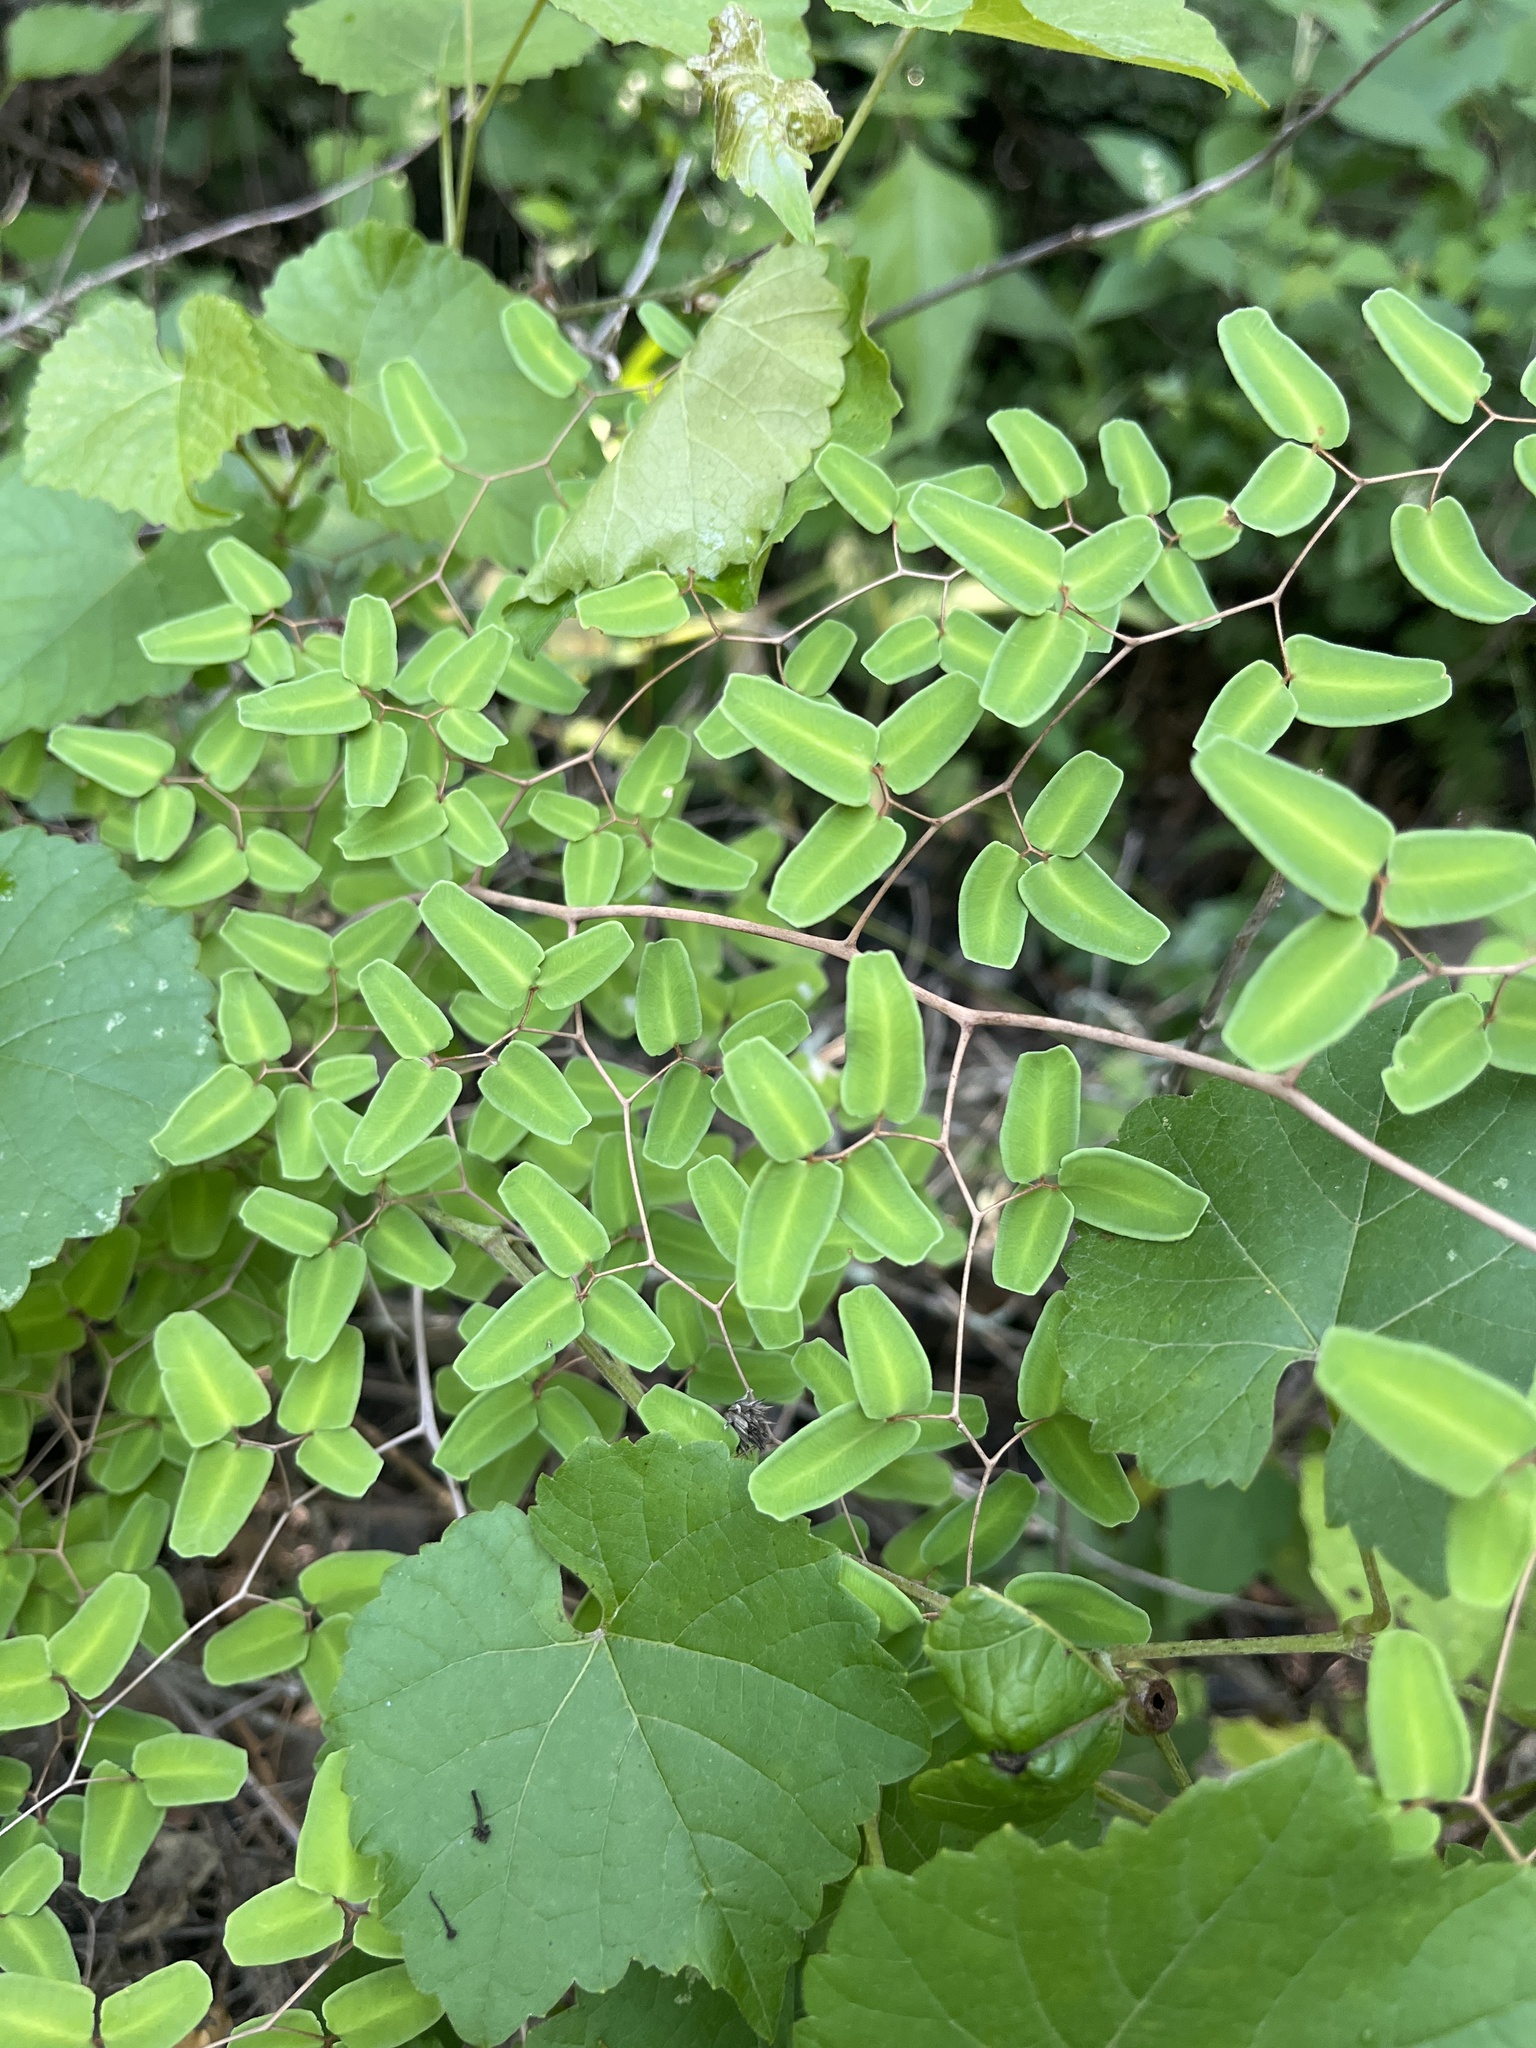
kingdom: Plantae
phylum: Tracheophyta
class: Polypodiopsida
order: Polypodiales
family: Pteridaceae
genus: Pellaea
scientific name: Pellaea ovata
